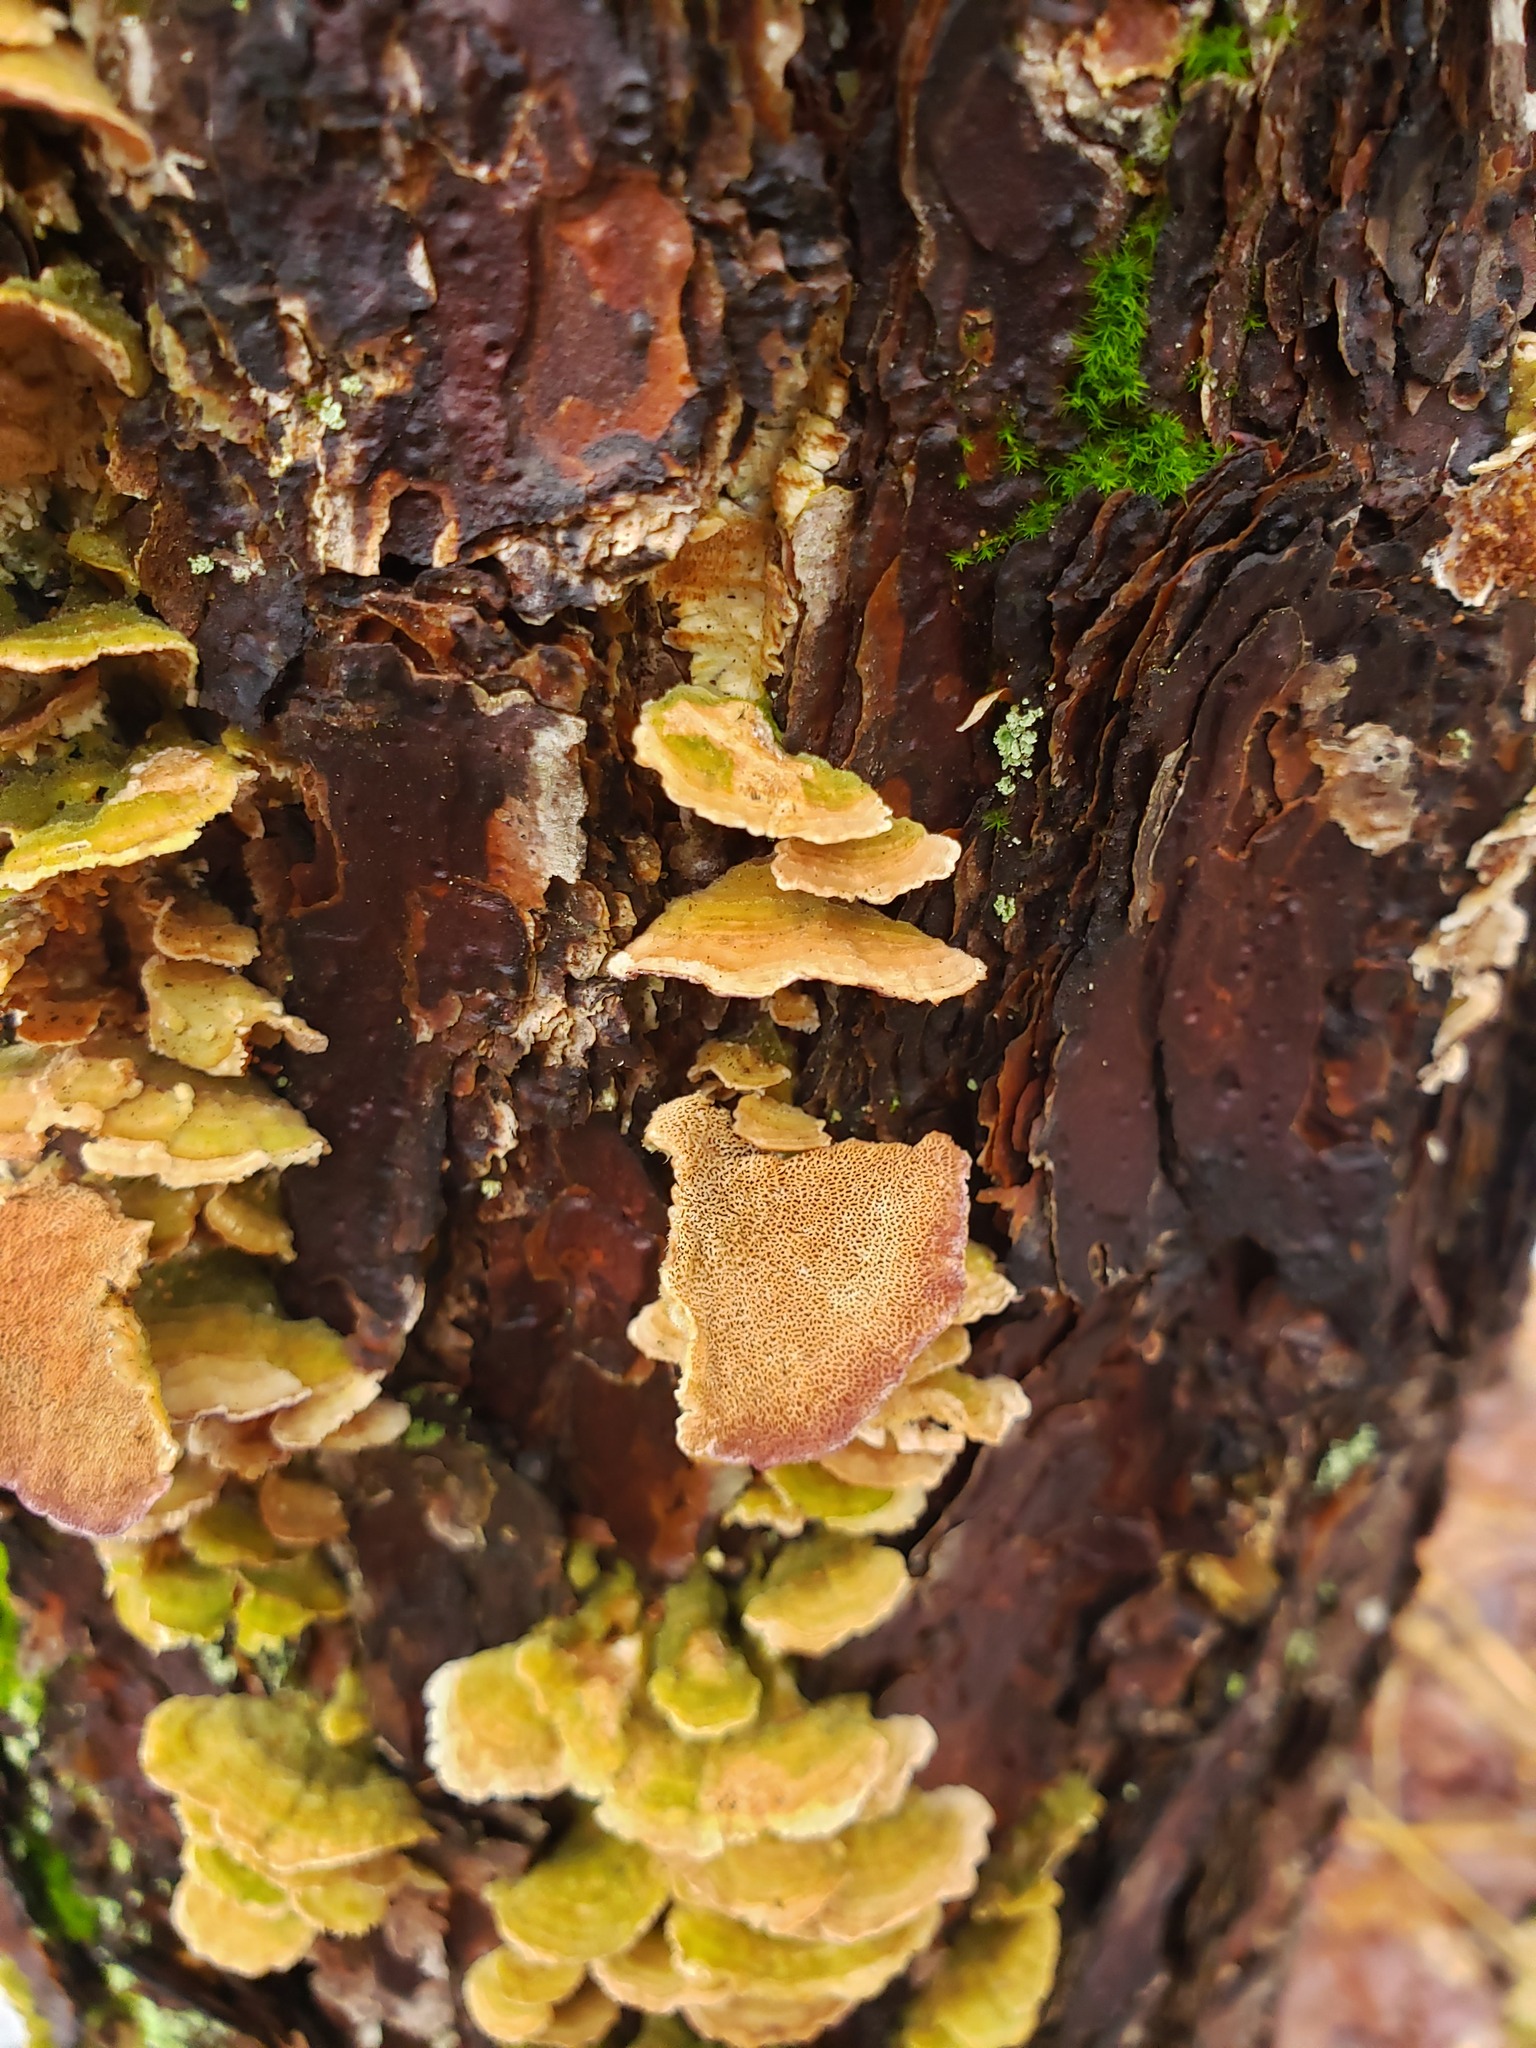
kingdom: Fungi
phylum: Basidiomycota
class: Agaricomycetes
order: Hymenochaetales
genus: Trichaptum
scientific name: Trichaptum abietinum
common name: Purplepore bracket
